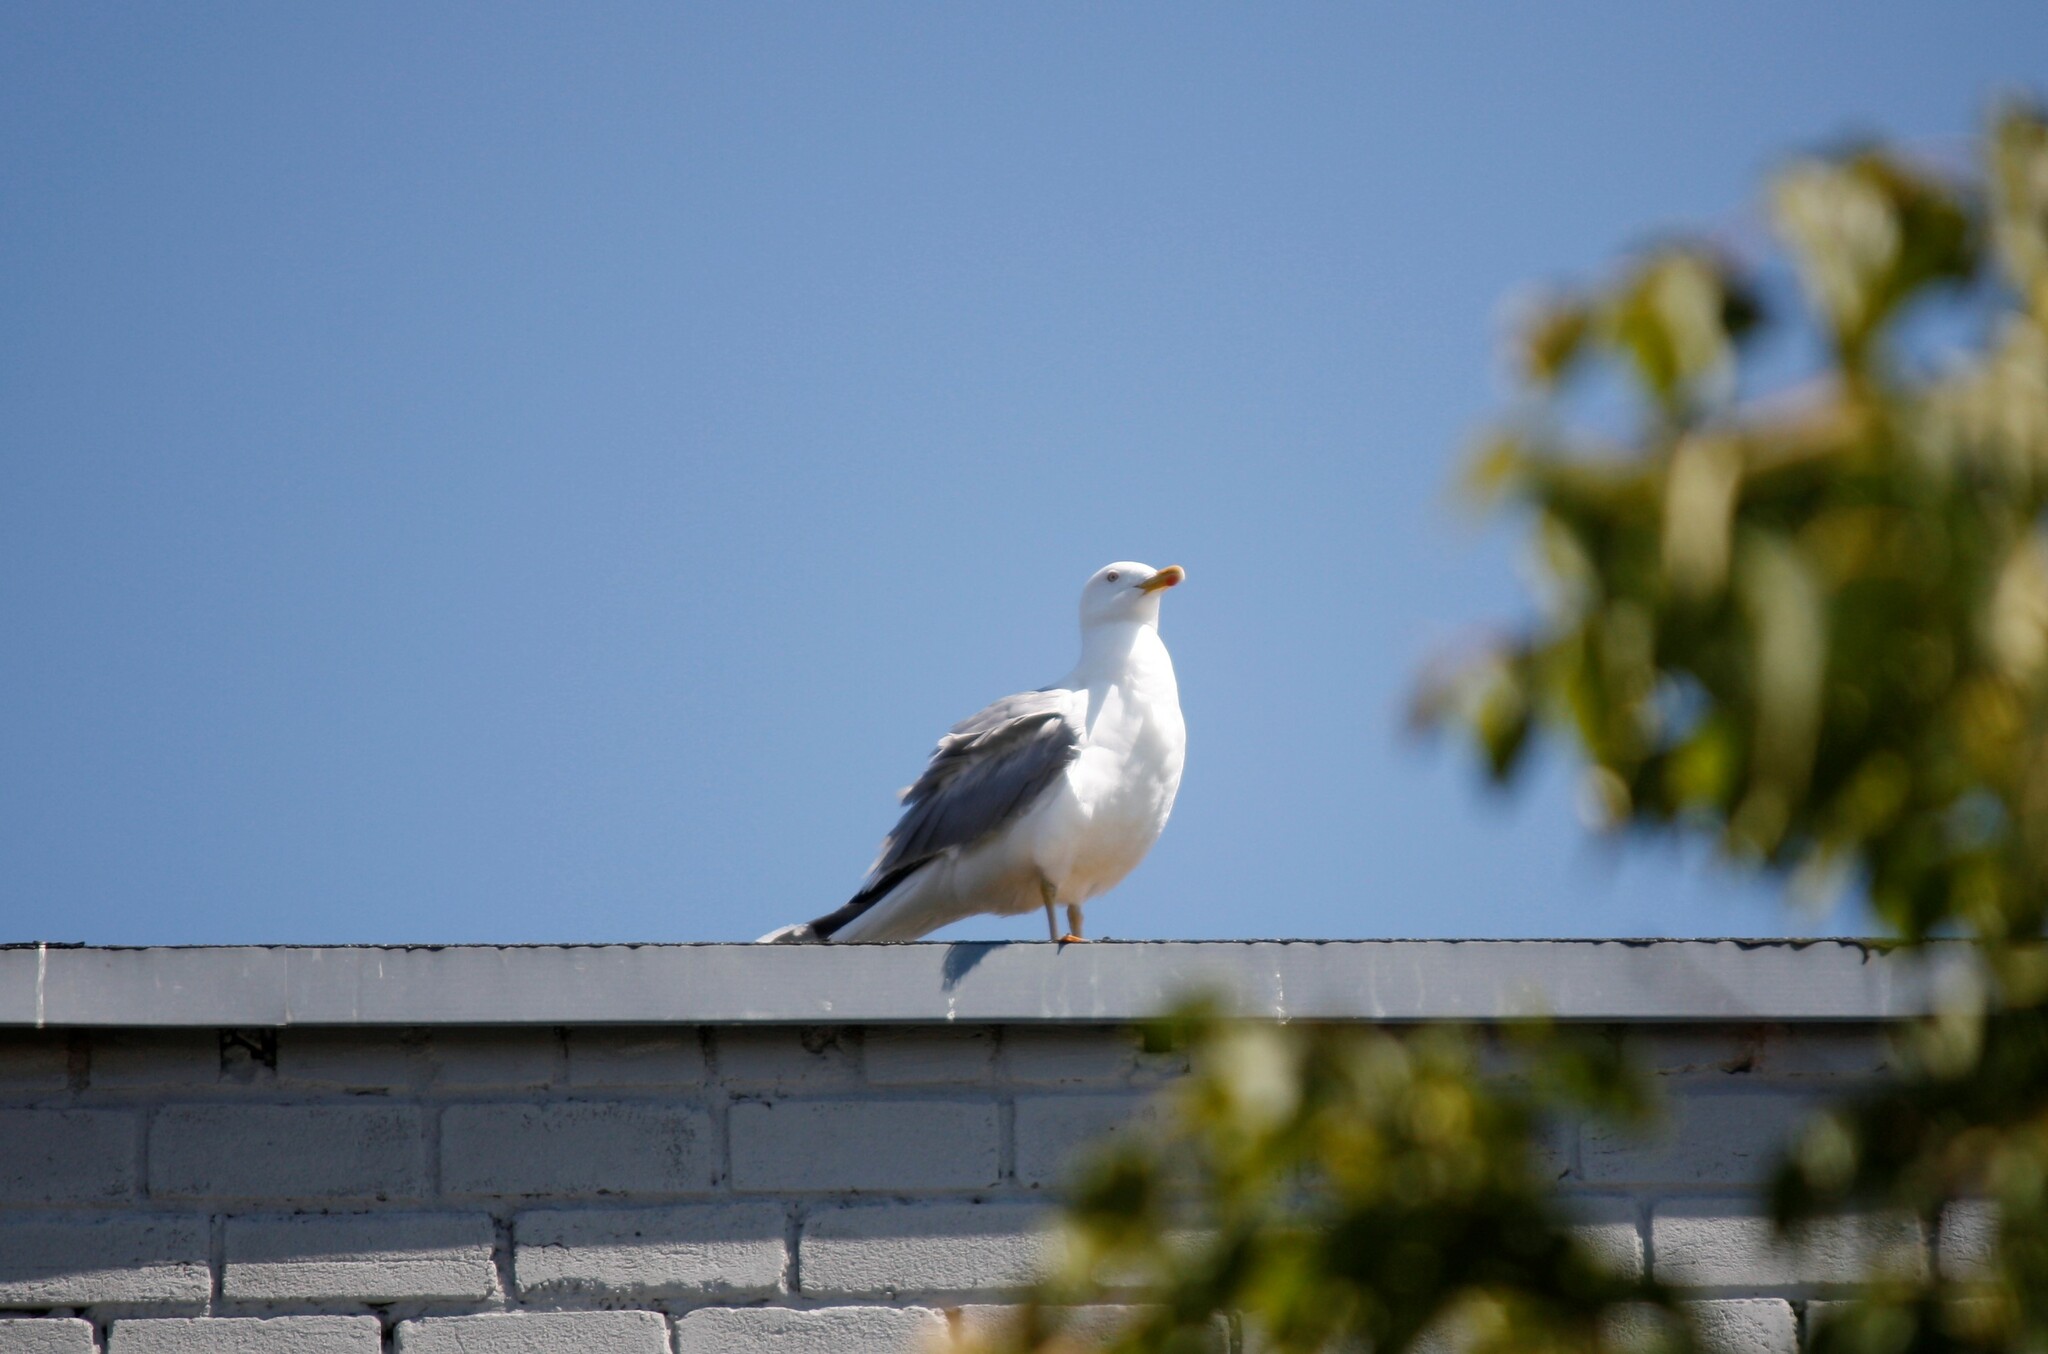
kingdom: Animalia
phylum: Chordata
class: Aves
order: Charadriiformes
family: Laridae
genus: Larus
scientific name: Larus argentatus
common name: Herring gull
